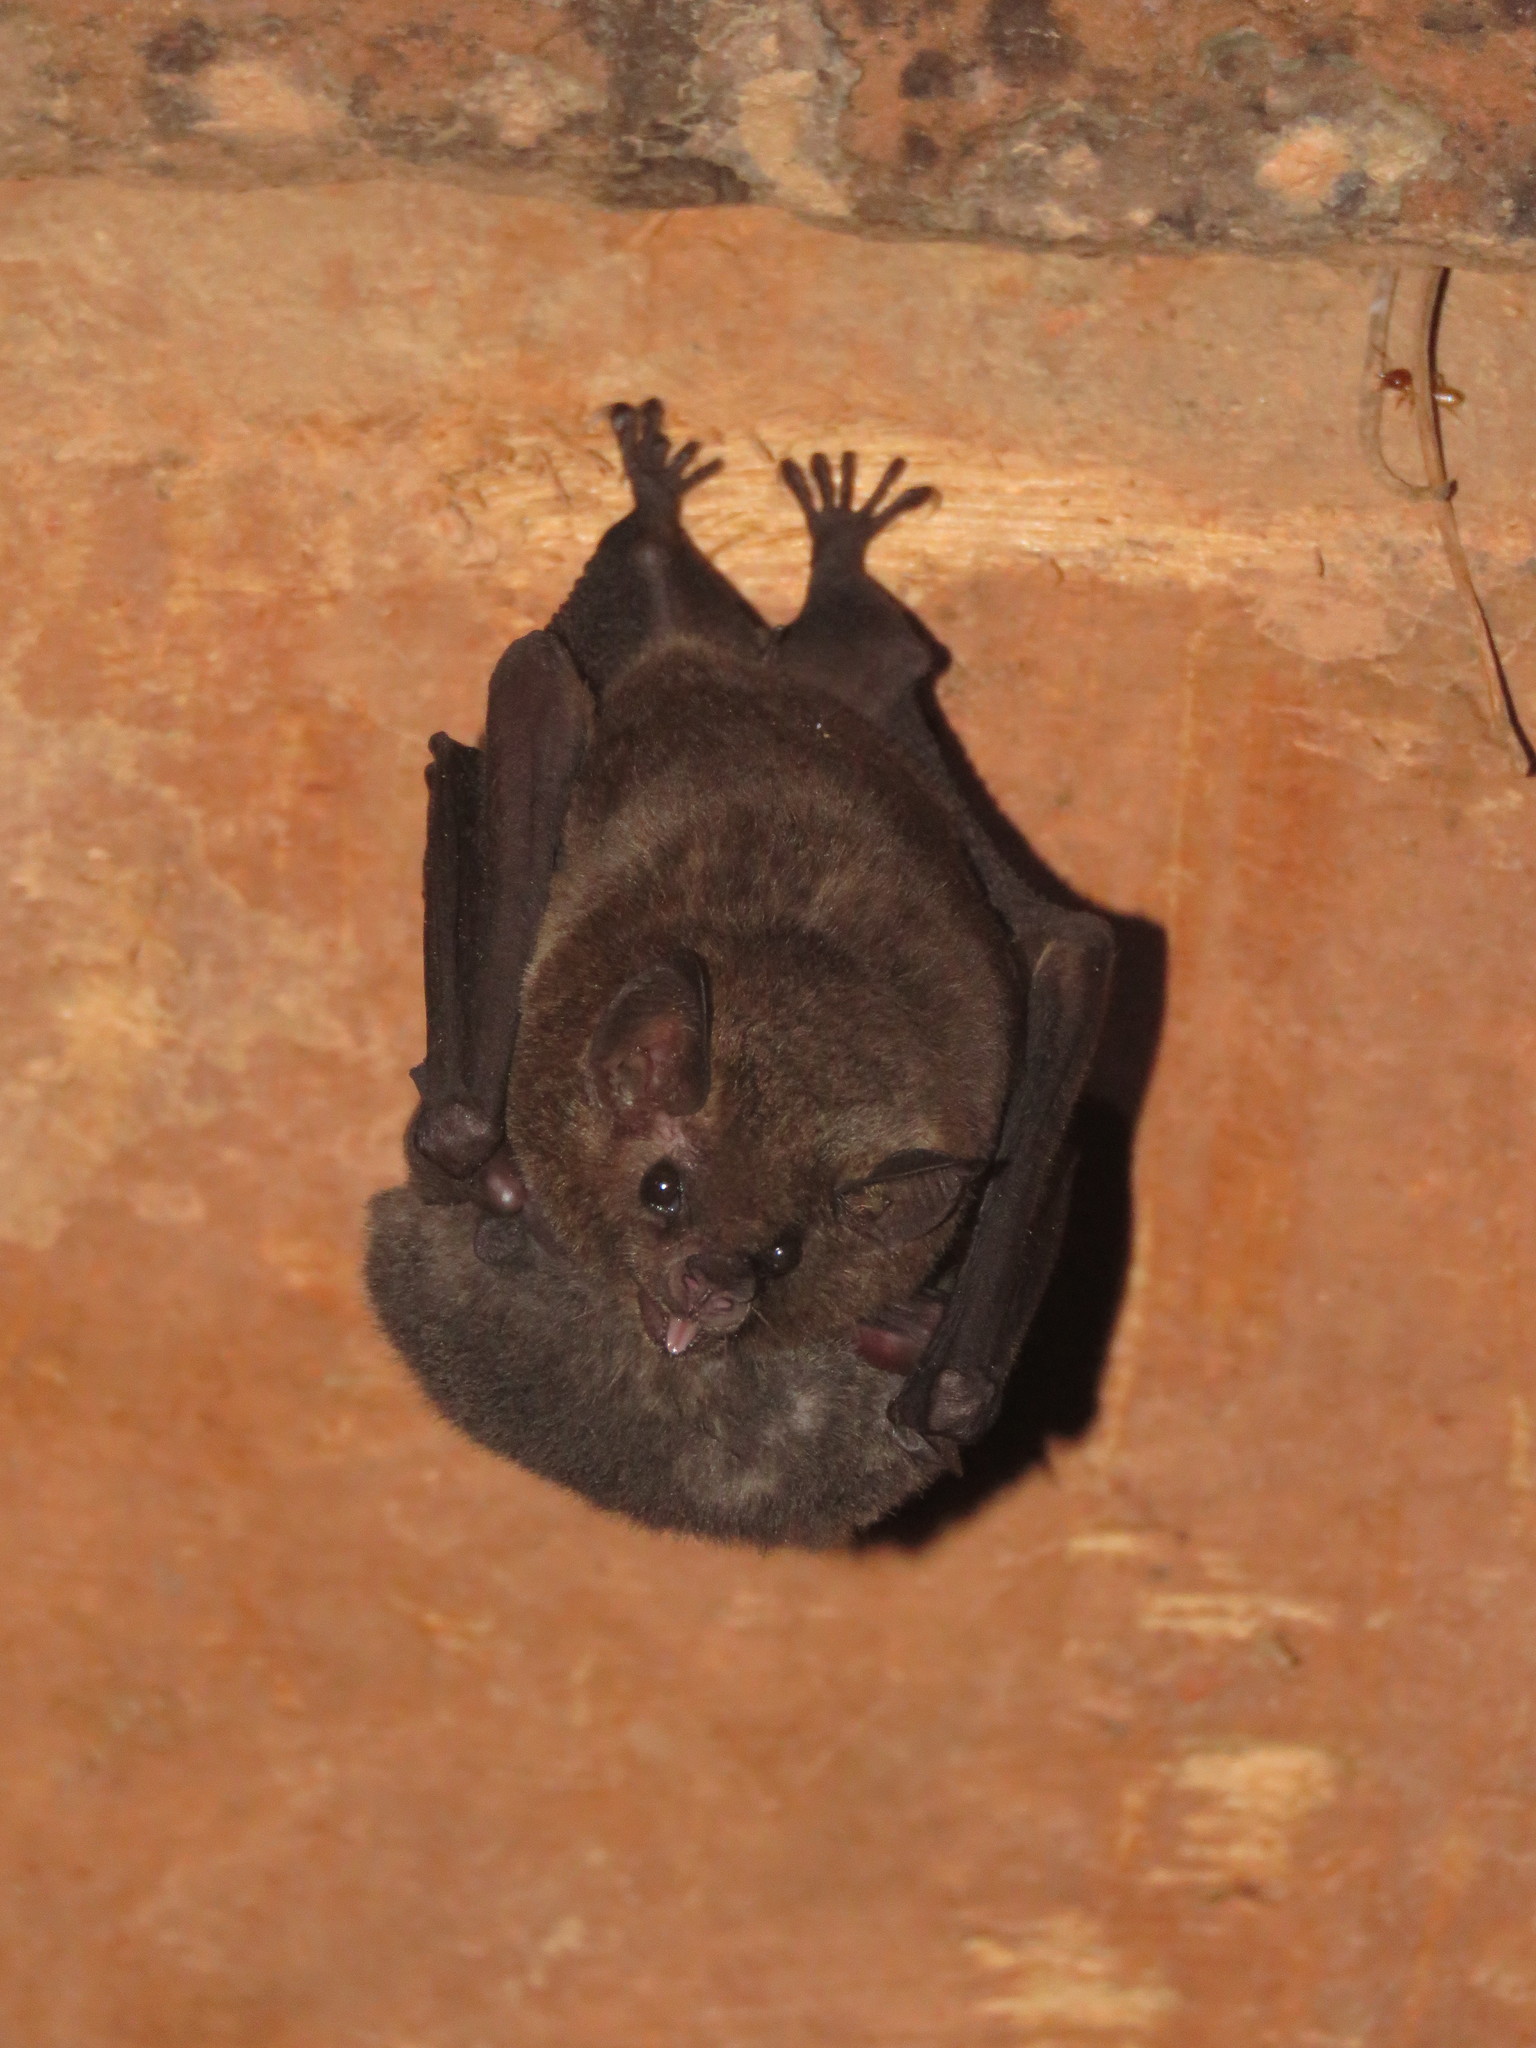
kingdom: Animalia
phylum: Chordata
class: Mammalia
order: Chiroptera
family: Phyllostomidae
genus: Glossophaga
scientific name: Glossophaga soricina
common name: Pallas's long-tongued bat
